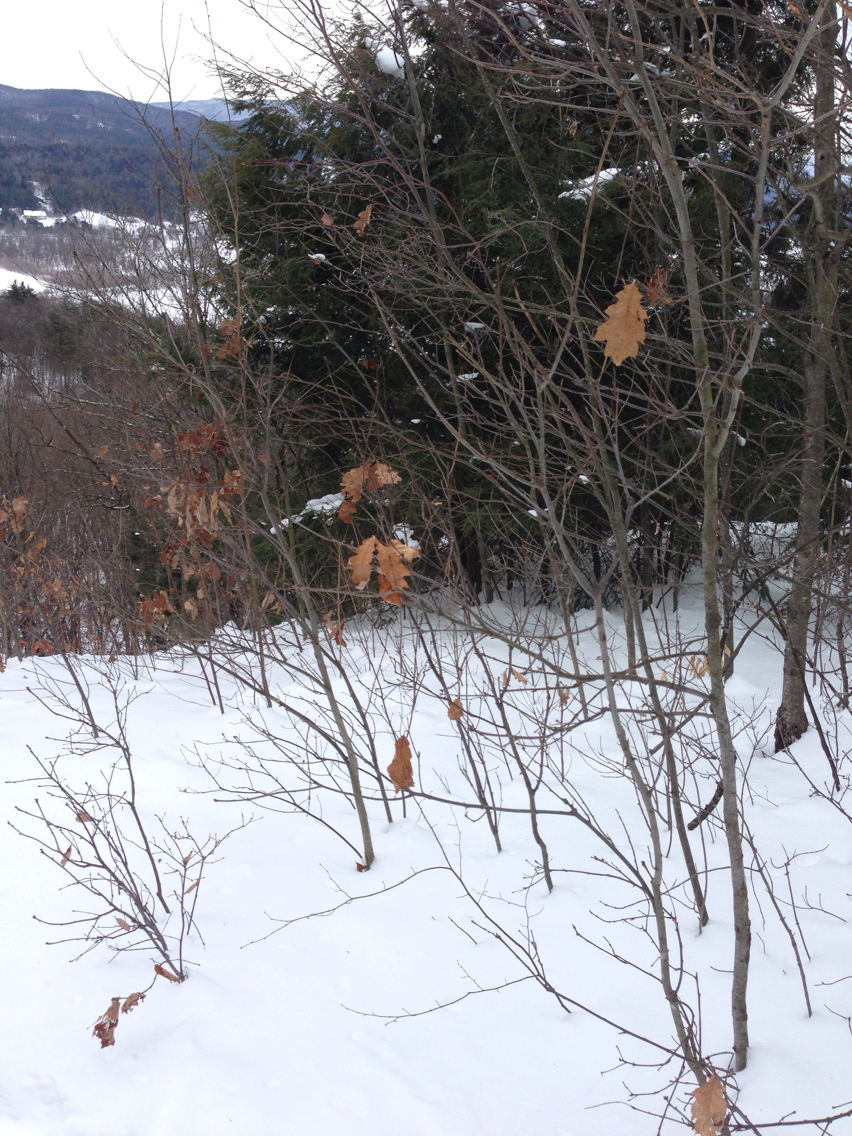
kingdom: Plantae
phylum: Tracheophyta
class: Magnoliopsida
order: Fagales
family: Fagaceae
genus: Quercus
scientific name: Quercus rubra
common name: Red oak
